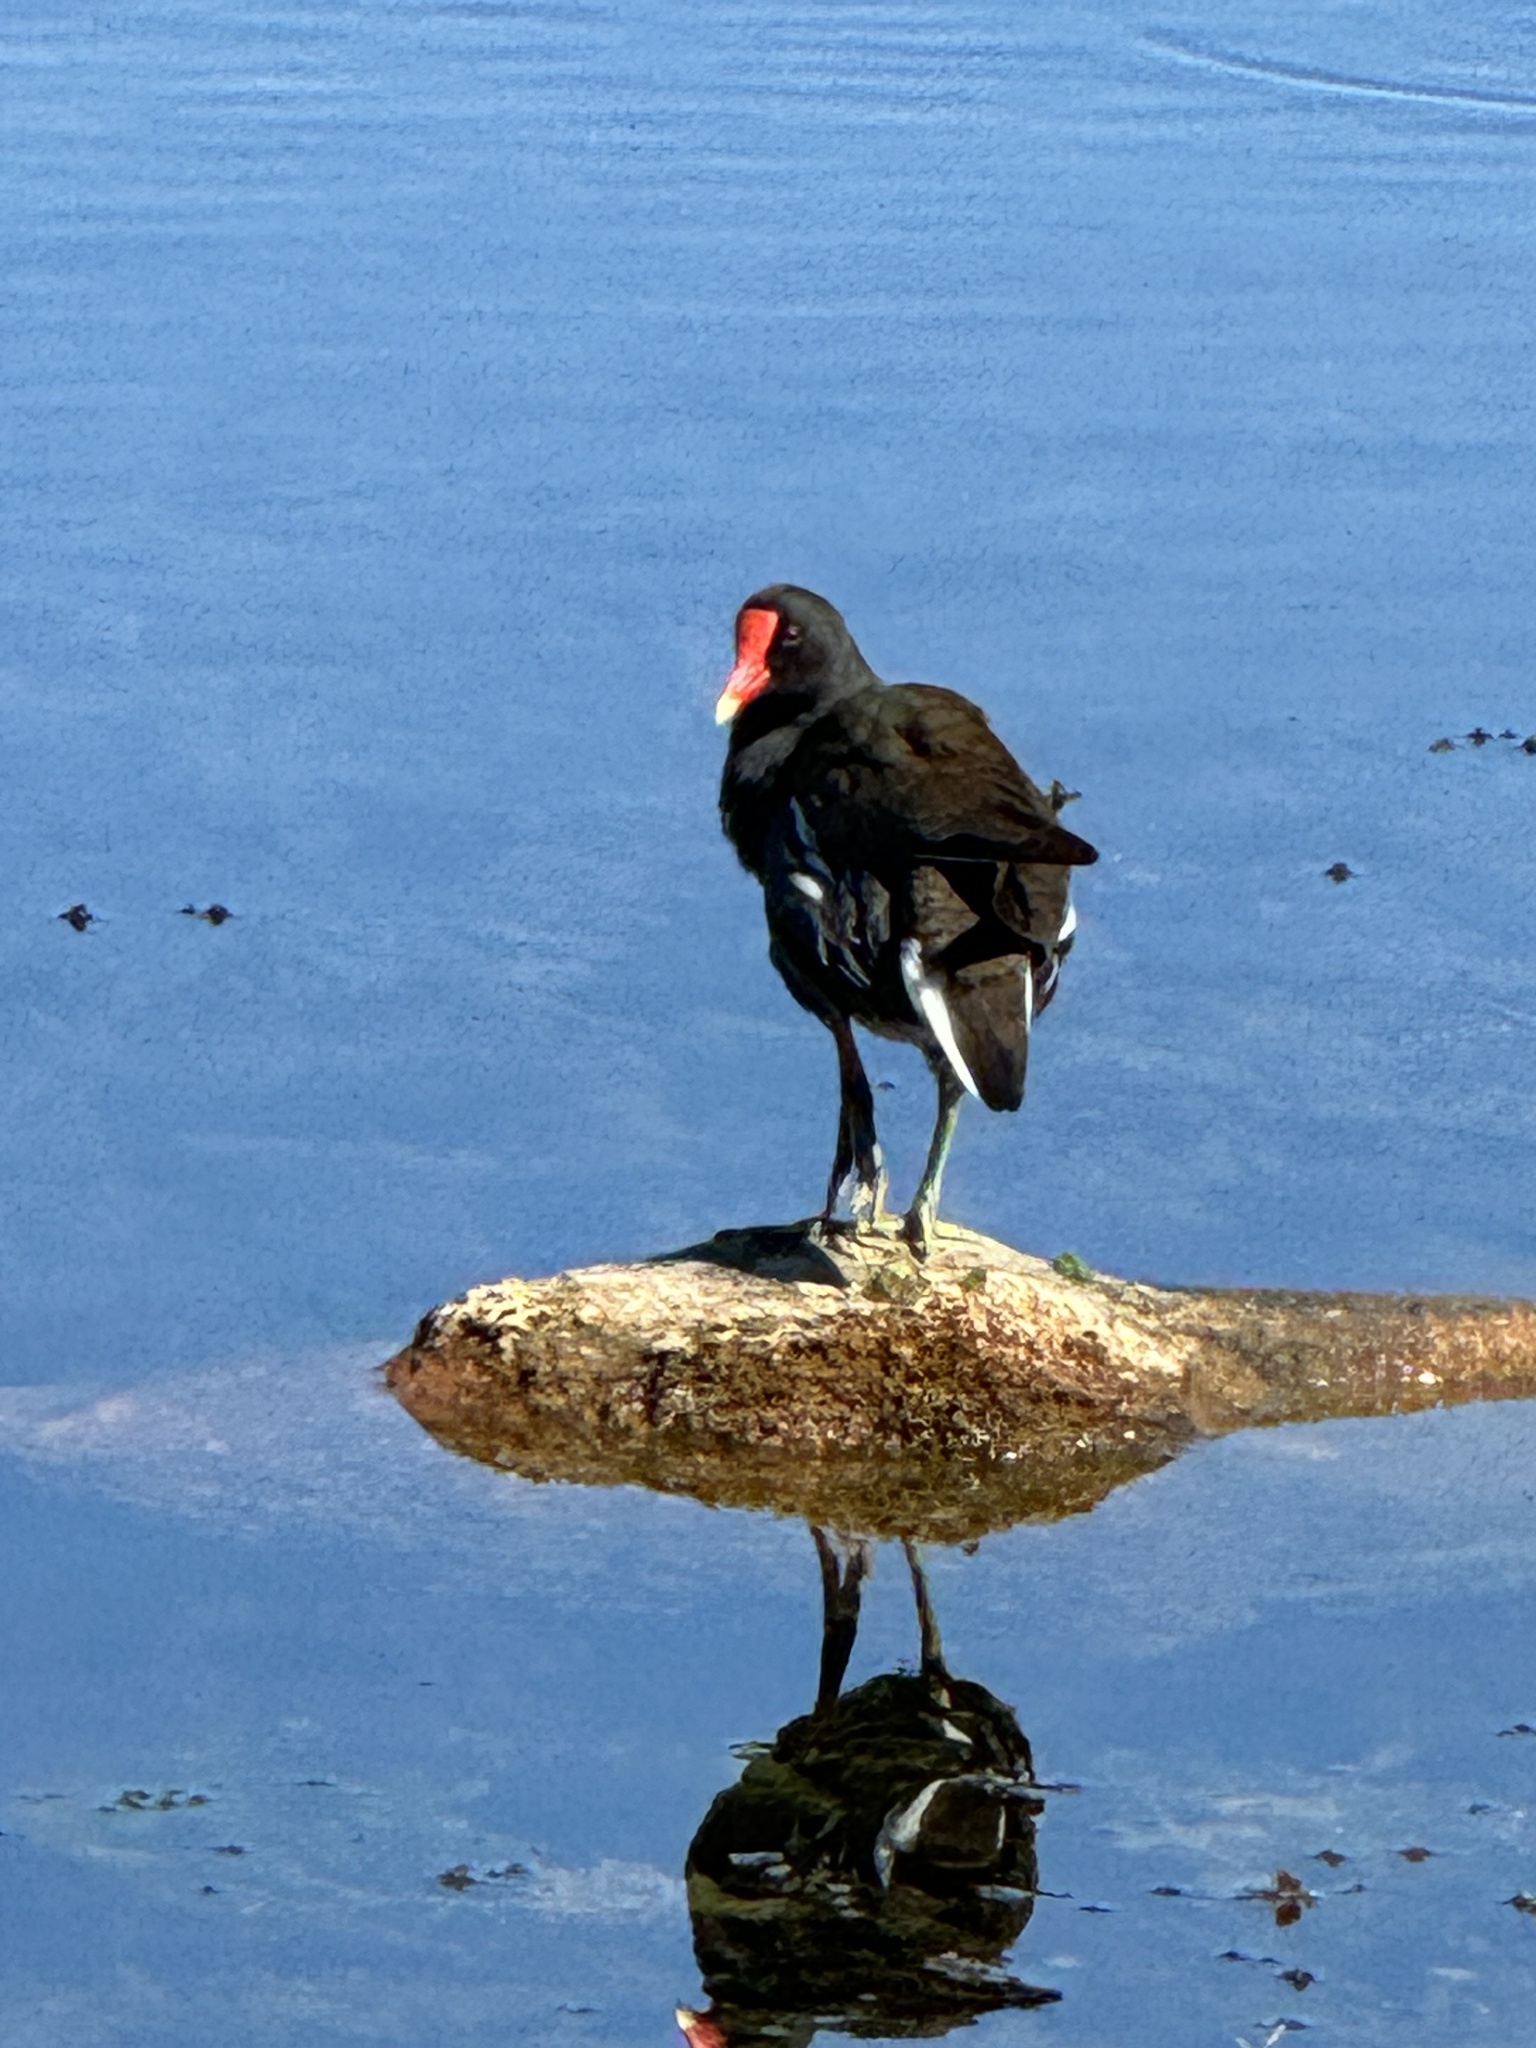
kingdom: Animalia
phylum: Chordata
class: Aves
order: Gruiformes
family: Rallidae
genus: Gallinula
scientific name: Gallinula chloropus
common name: Common moorhen
